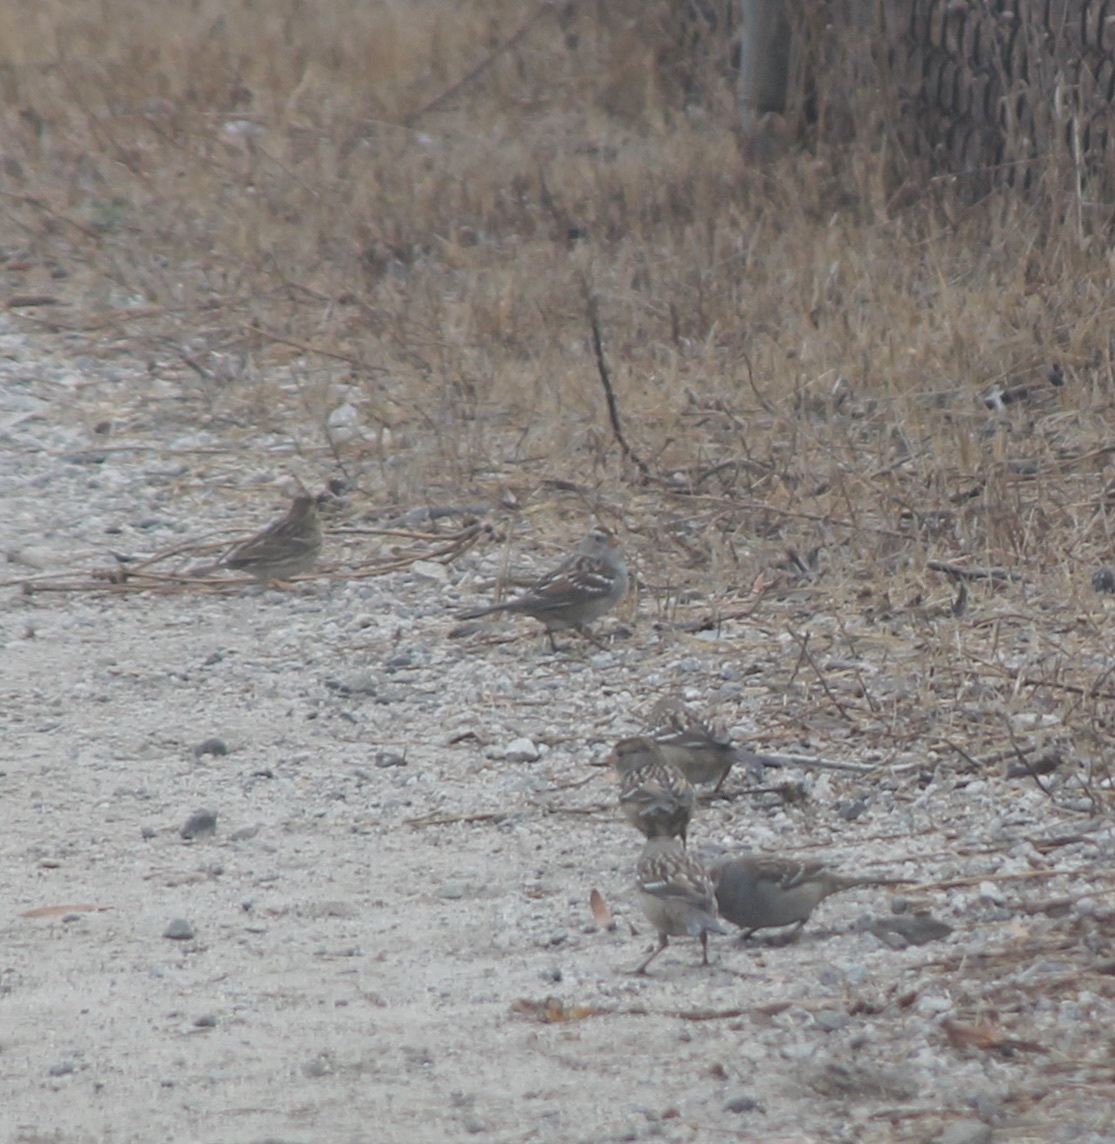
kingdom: Animalia
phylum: Chordata
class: Aves
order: Passeriformes
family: Passerellidae
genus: Zonotrichia
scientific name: Zonotrichia leucophrys
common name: White-crowned sparrow
